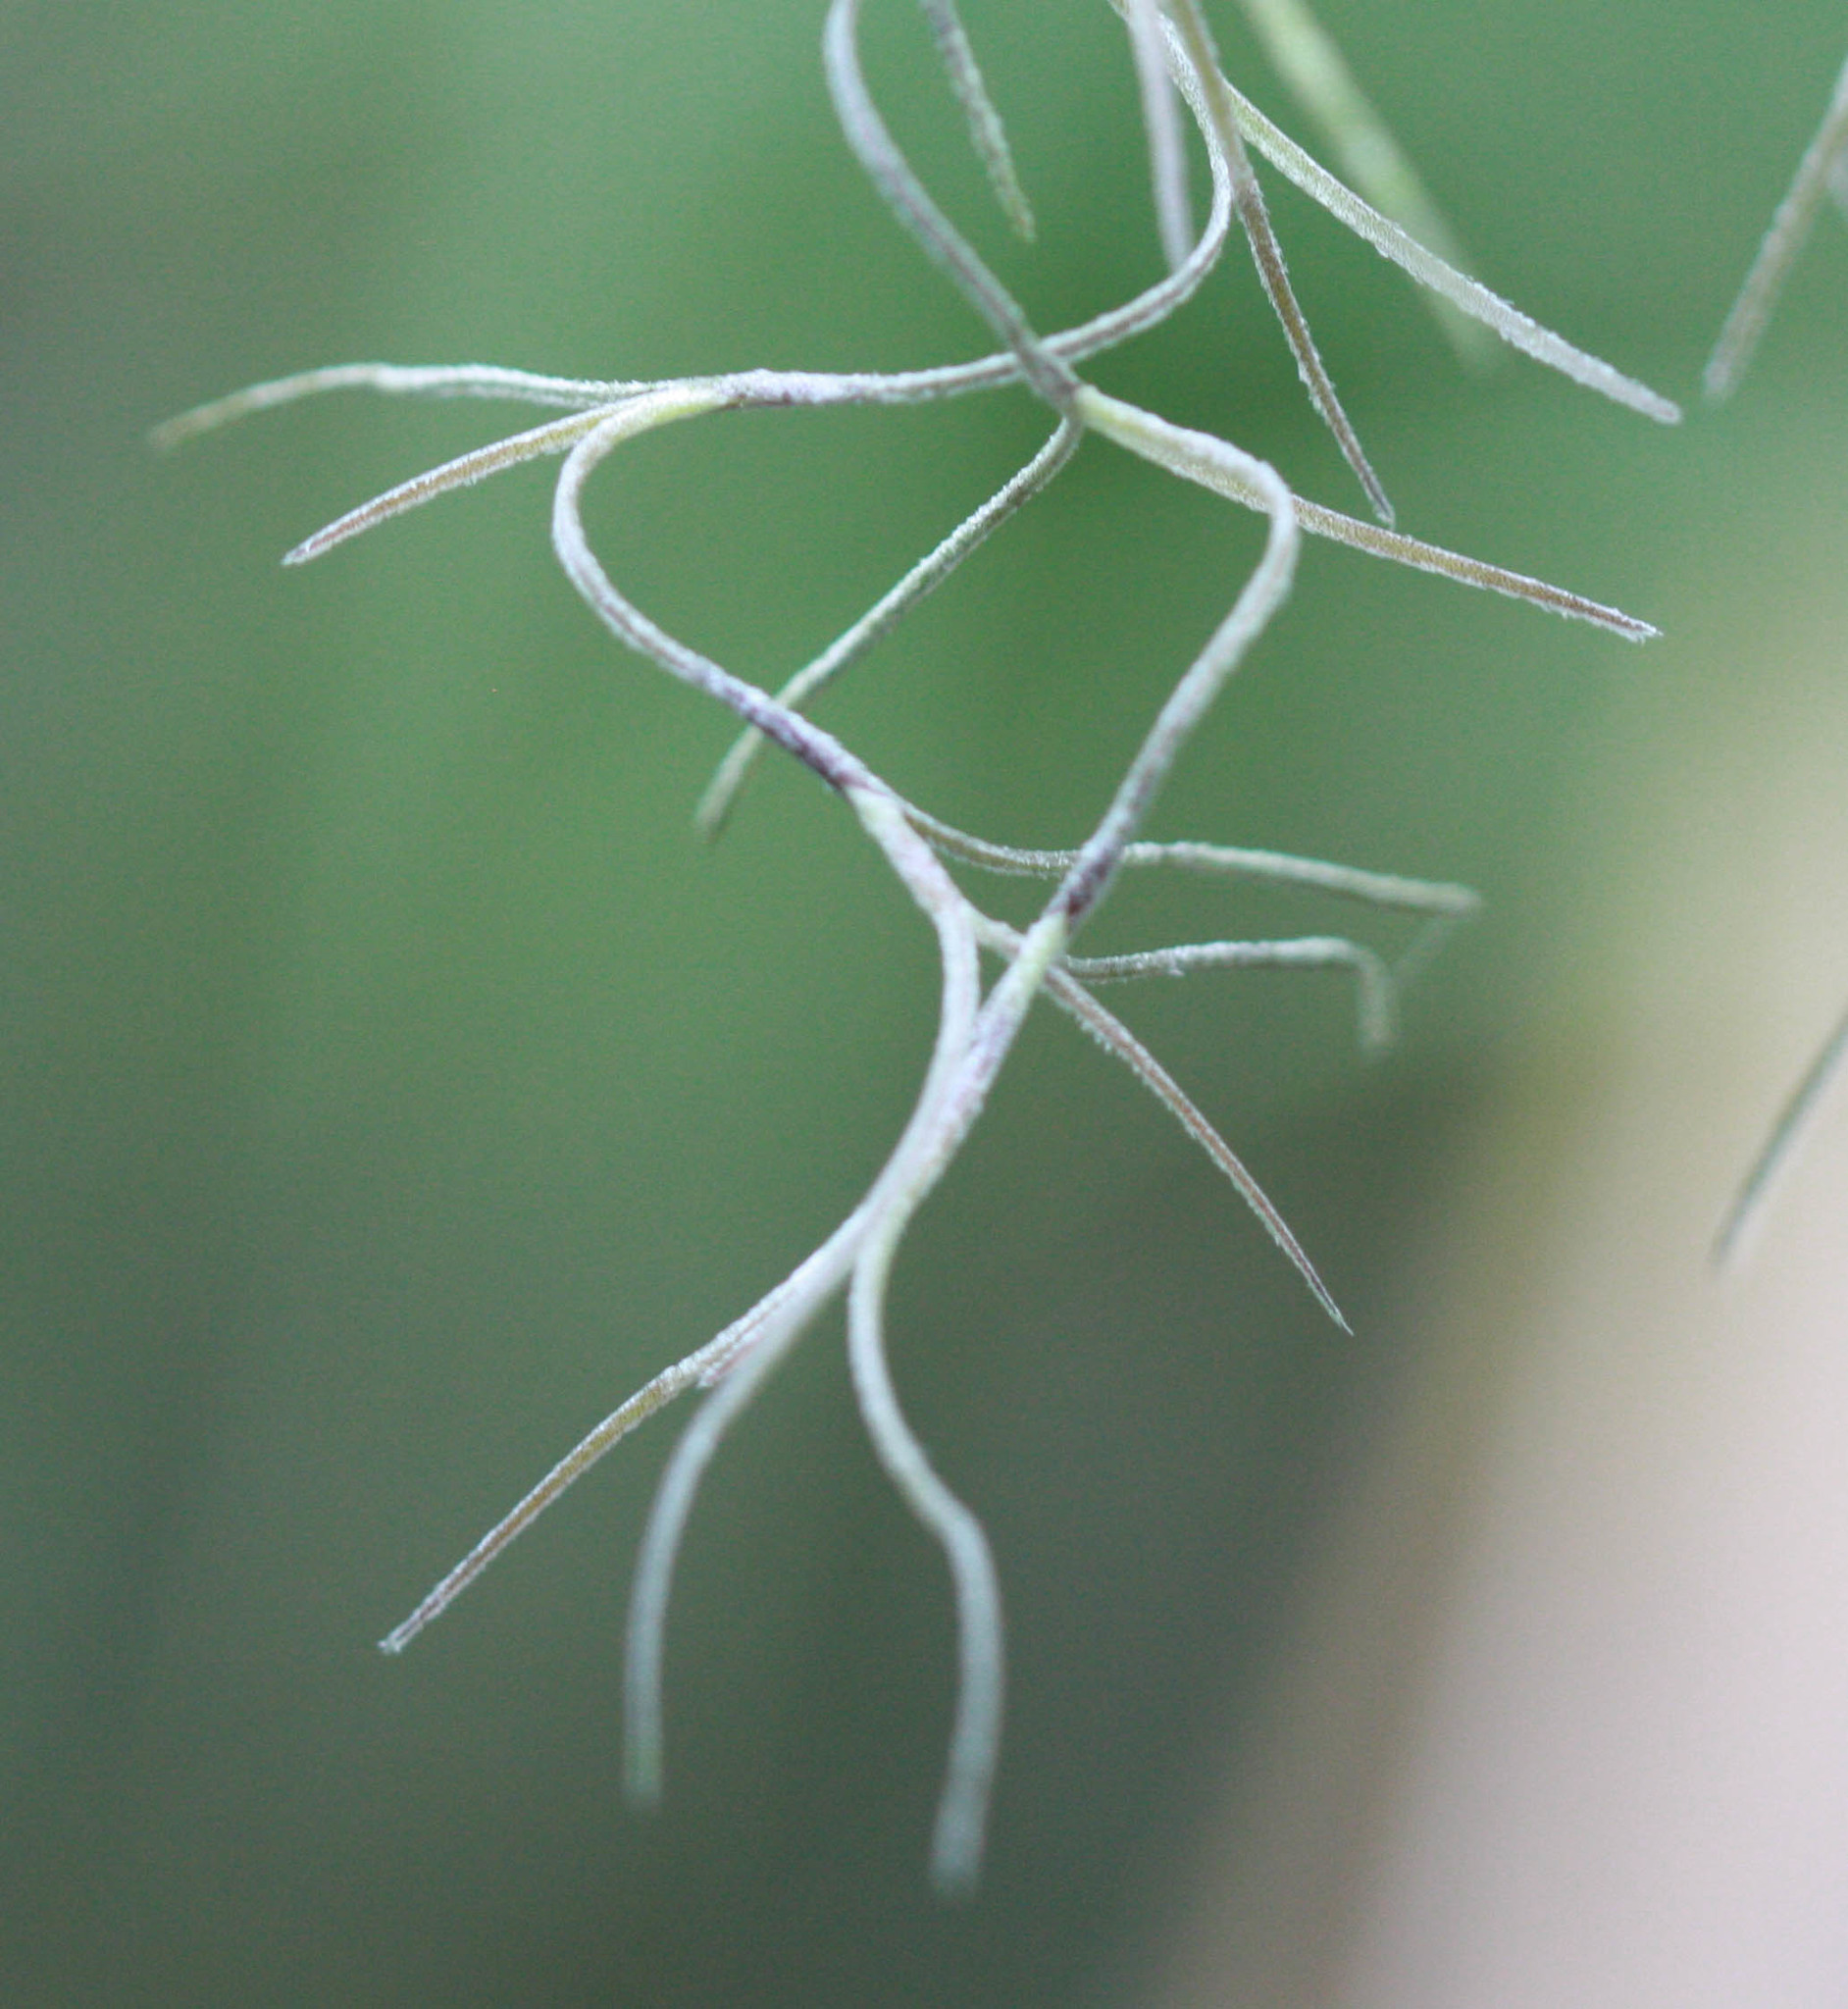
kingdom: Plantae
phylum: Tracheophyta
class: Liliopsida
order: Poales
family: Bromeliaceae
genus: Tillandsia
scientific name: Tillandsia usneoides
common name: Spanish moss
